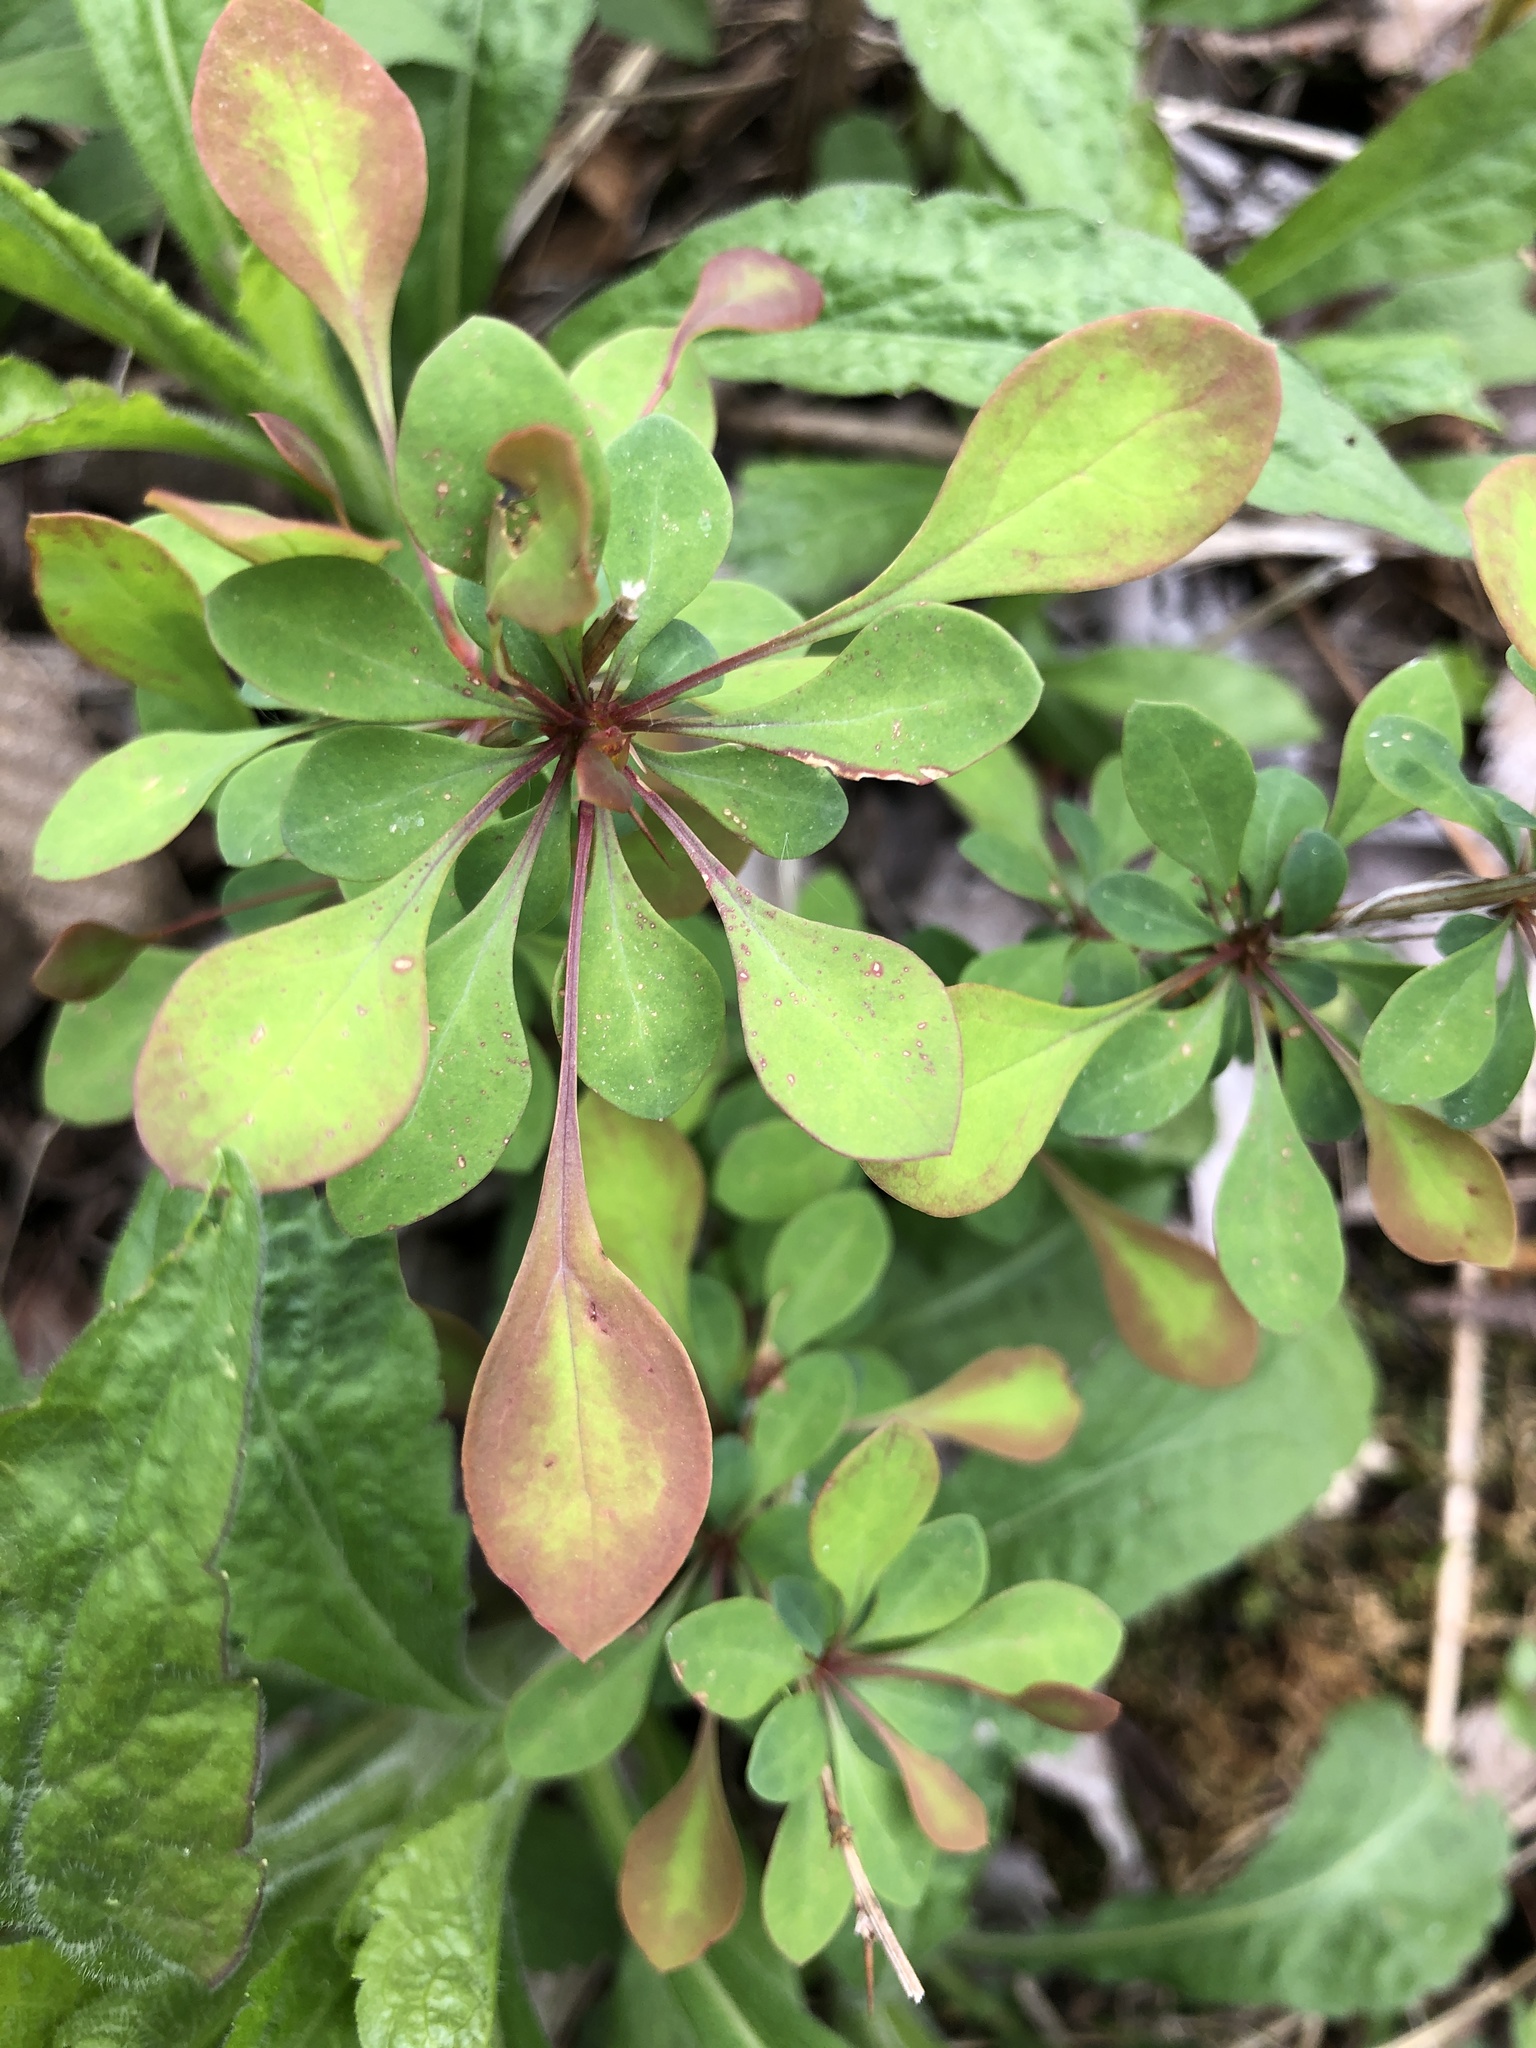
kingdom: Plantae
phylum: Tracheophyta
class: Magnoliopsida
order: Ranunculales
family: Berberidaceae
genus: Berberis
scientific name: Berberis thunbergii
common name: Japanese barberry
